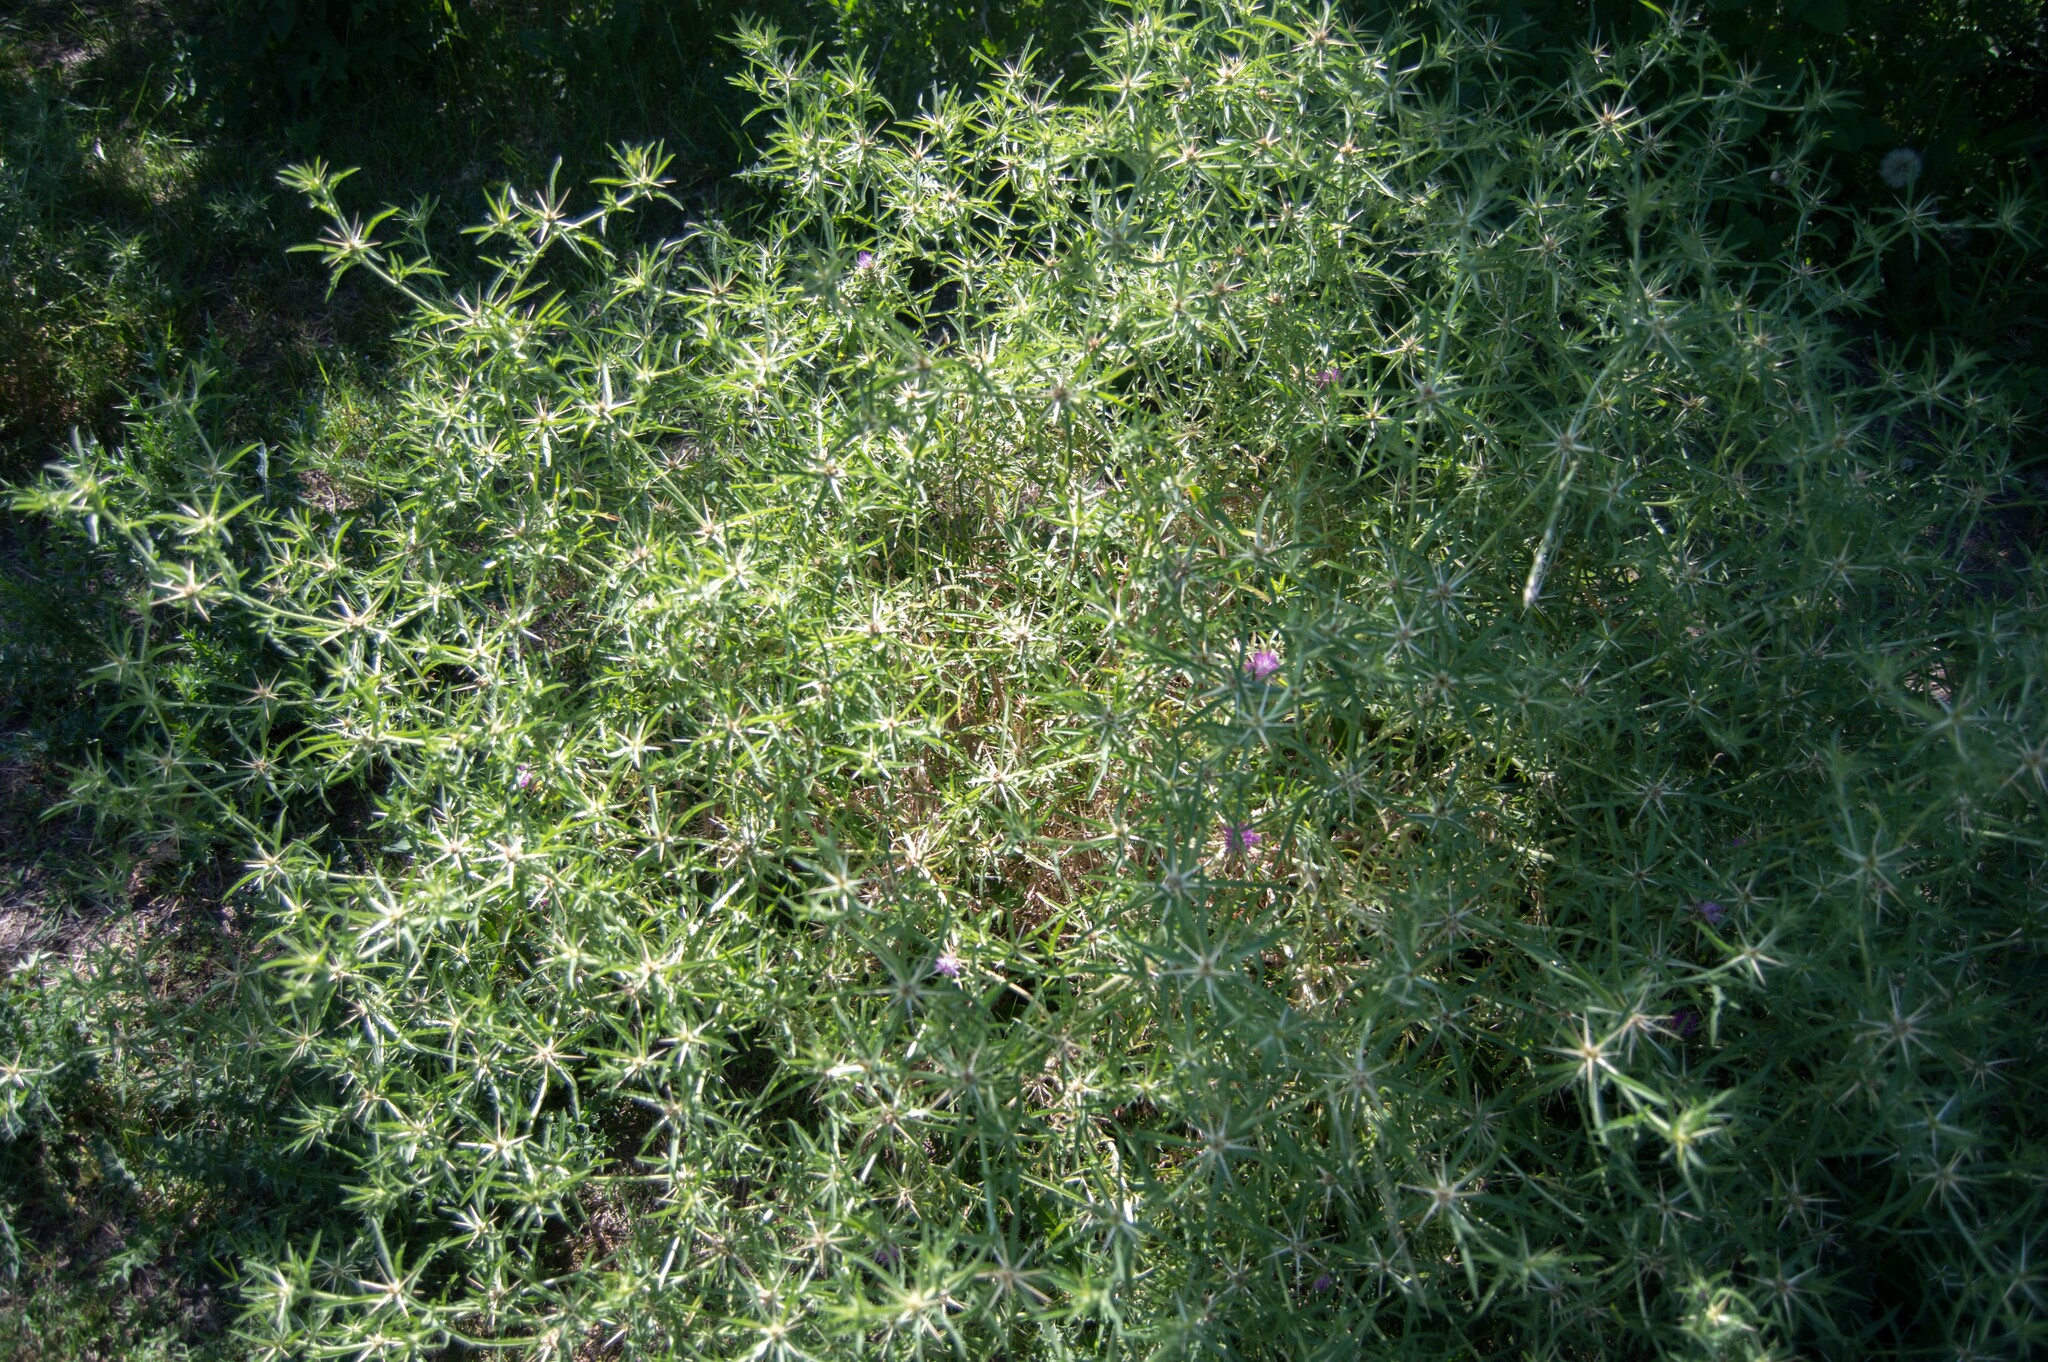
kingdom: Plantae
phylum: Tracheophyta
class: Magnoliopsida
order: Asterales
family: Asteraceae
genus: Centaurea
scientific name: Centaurea calcitrapa
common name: Red star-thistle
